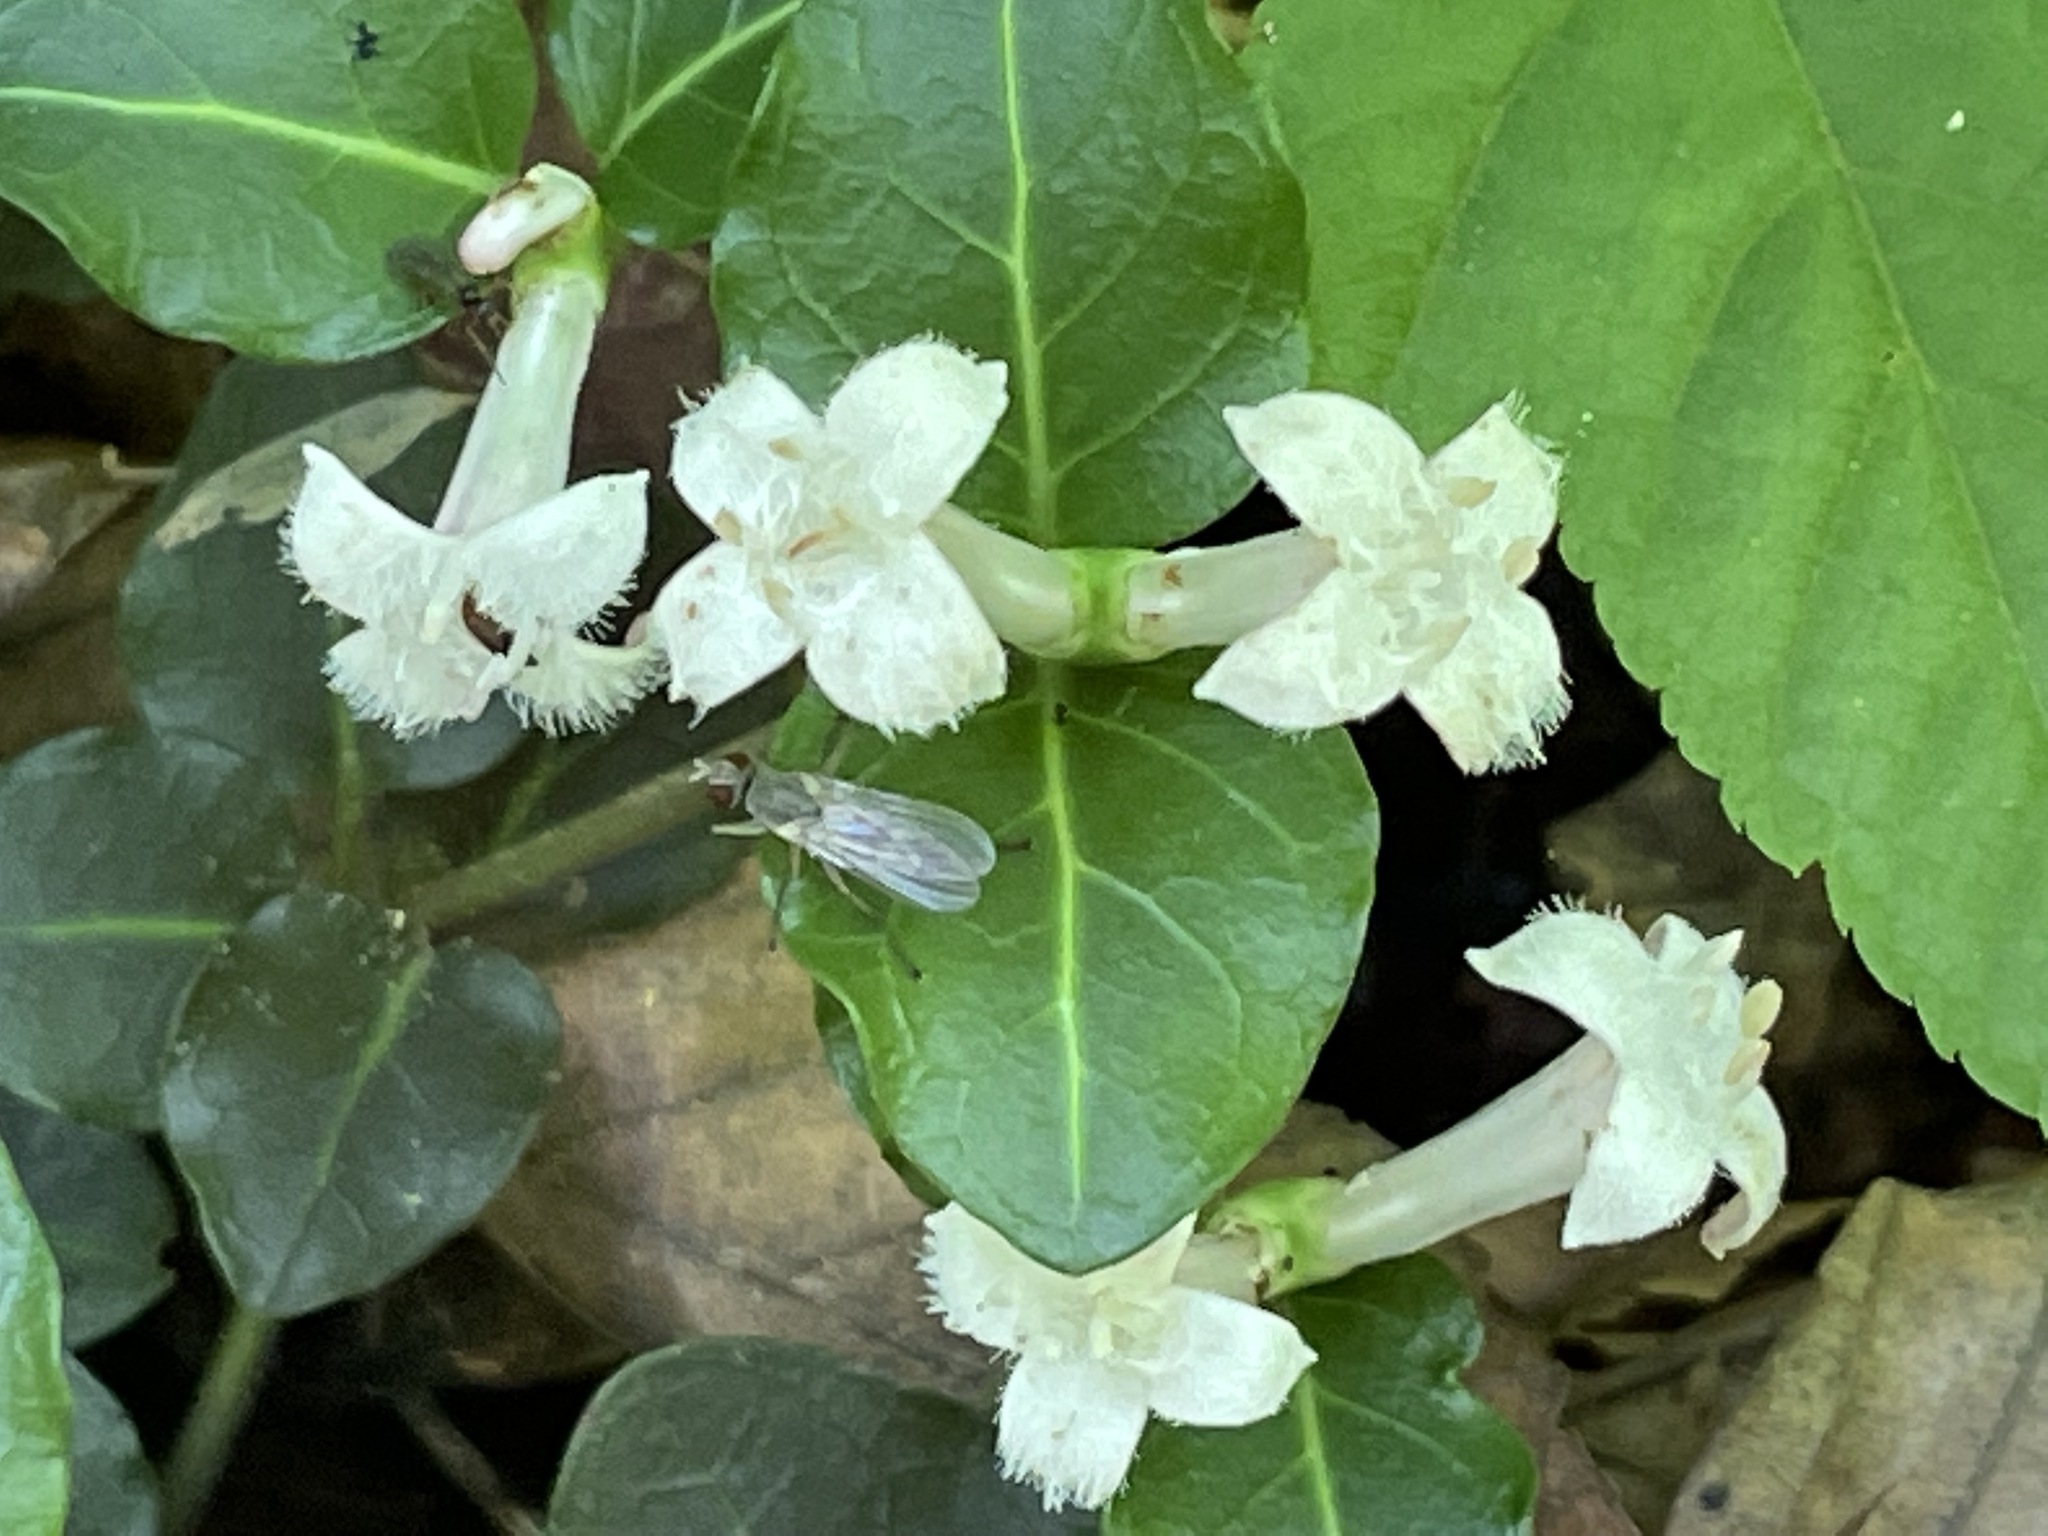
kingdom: Plantae
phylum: Tracheophyta
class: Magnoliopsida
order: Gentianales
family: Rubiaceae
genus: Mitchella
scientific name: Mitchella repens
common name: Partridge-berry
